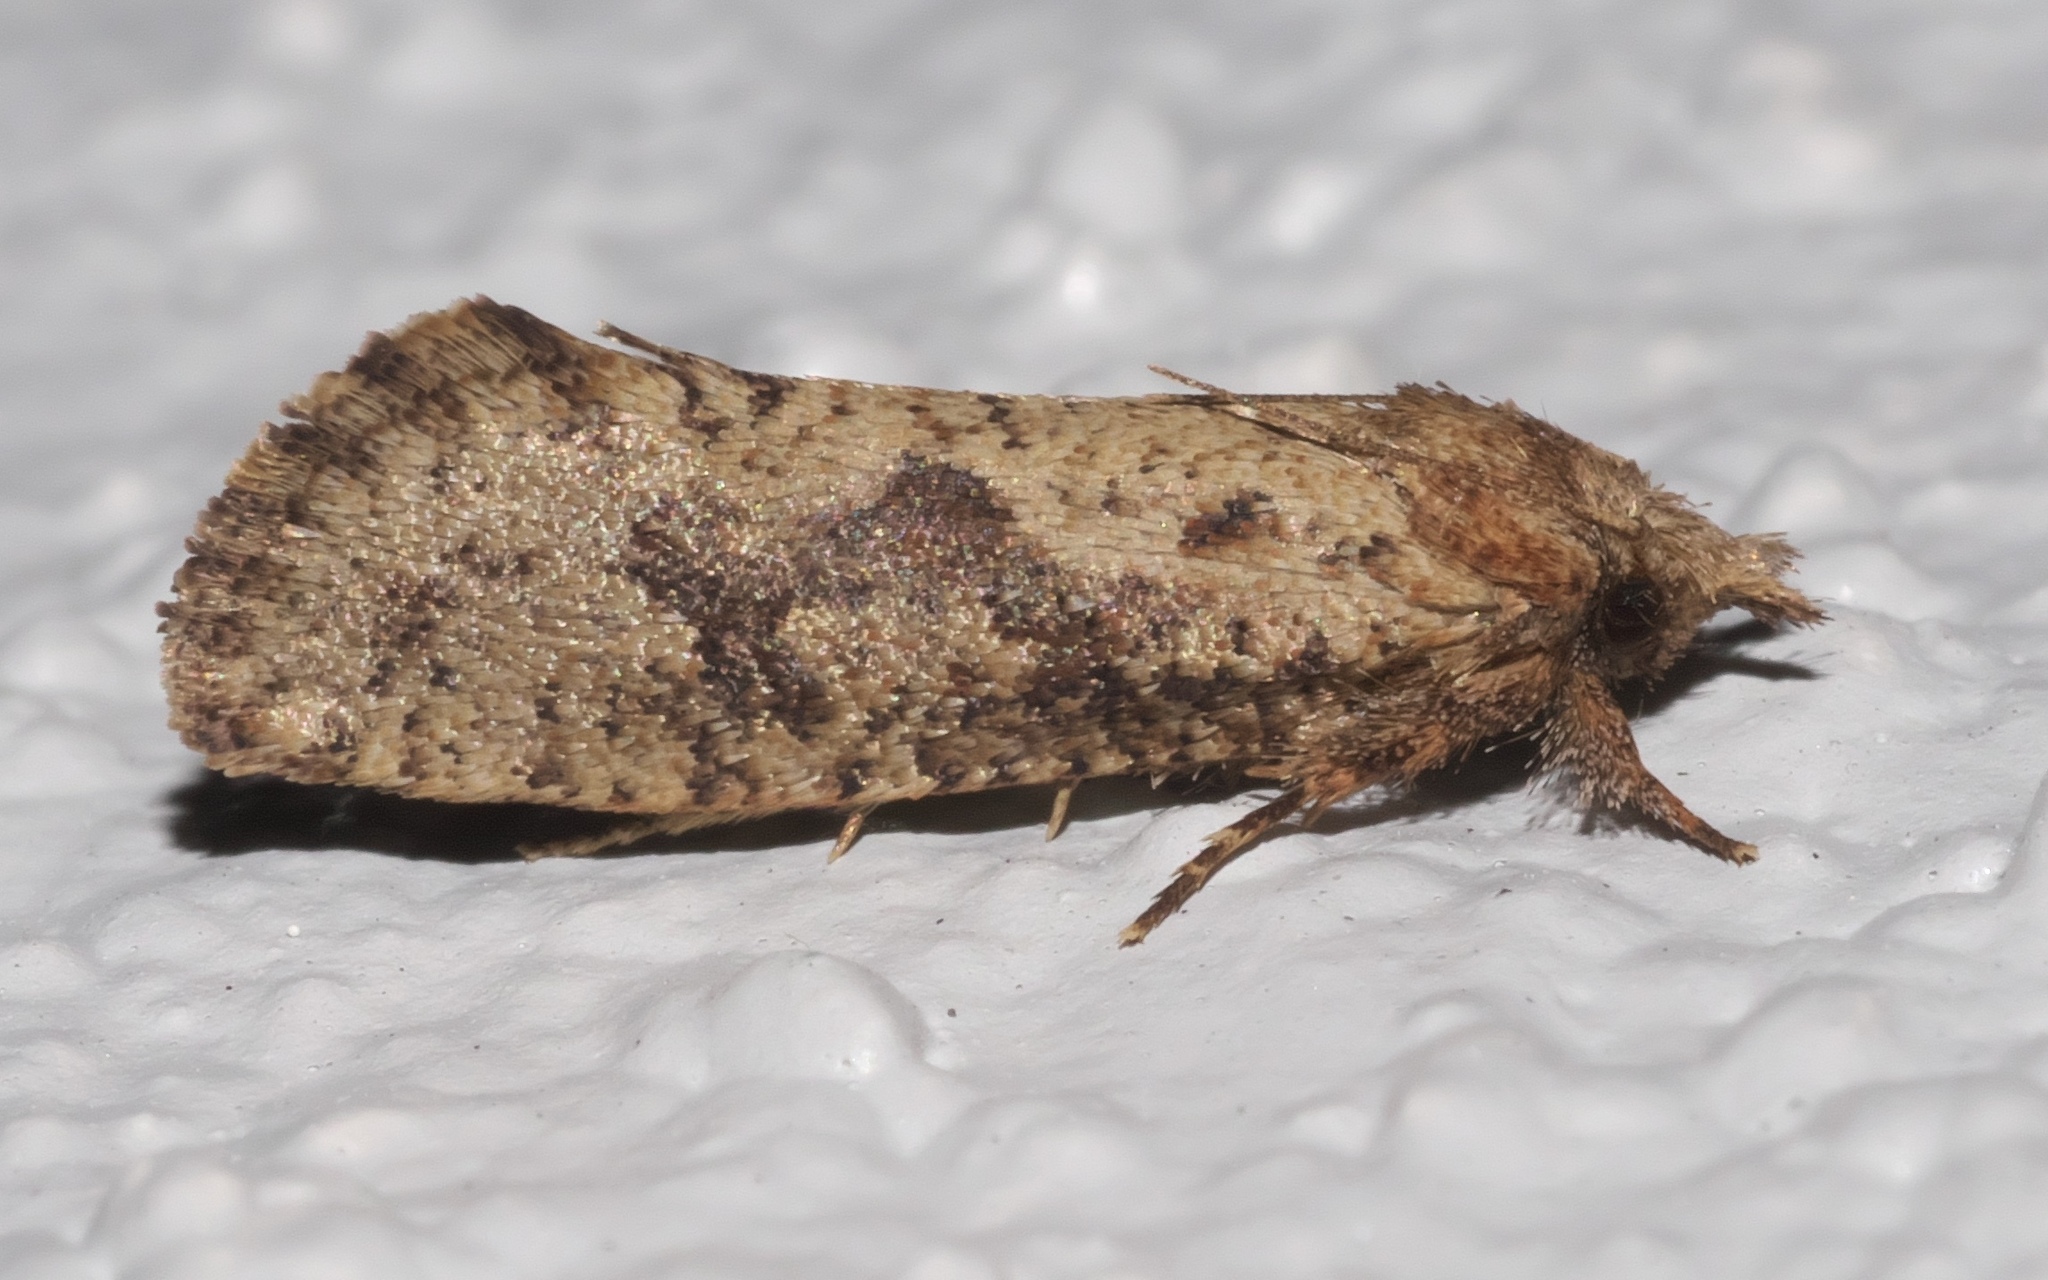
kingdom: Animalia
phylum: Arthropoda
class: Insecta
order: Lepidoptera
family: Tineidae
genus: Acrolophus
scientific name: Acrolophus walsinghami
